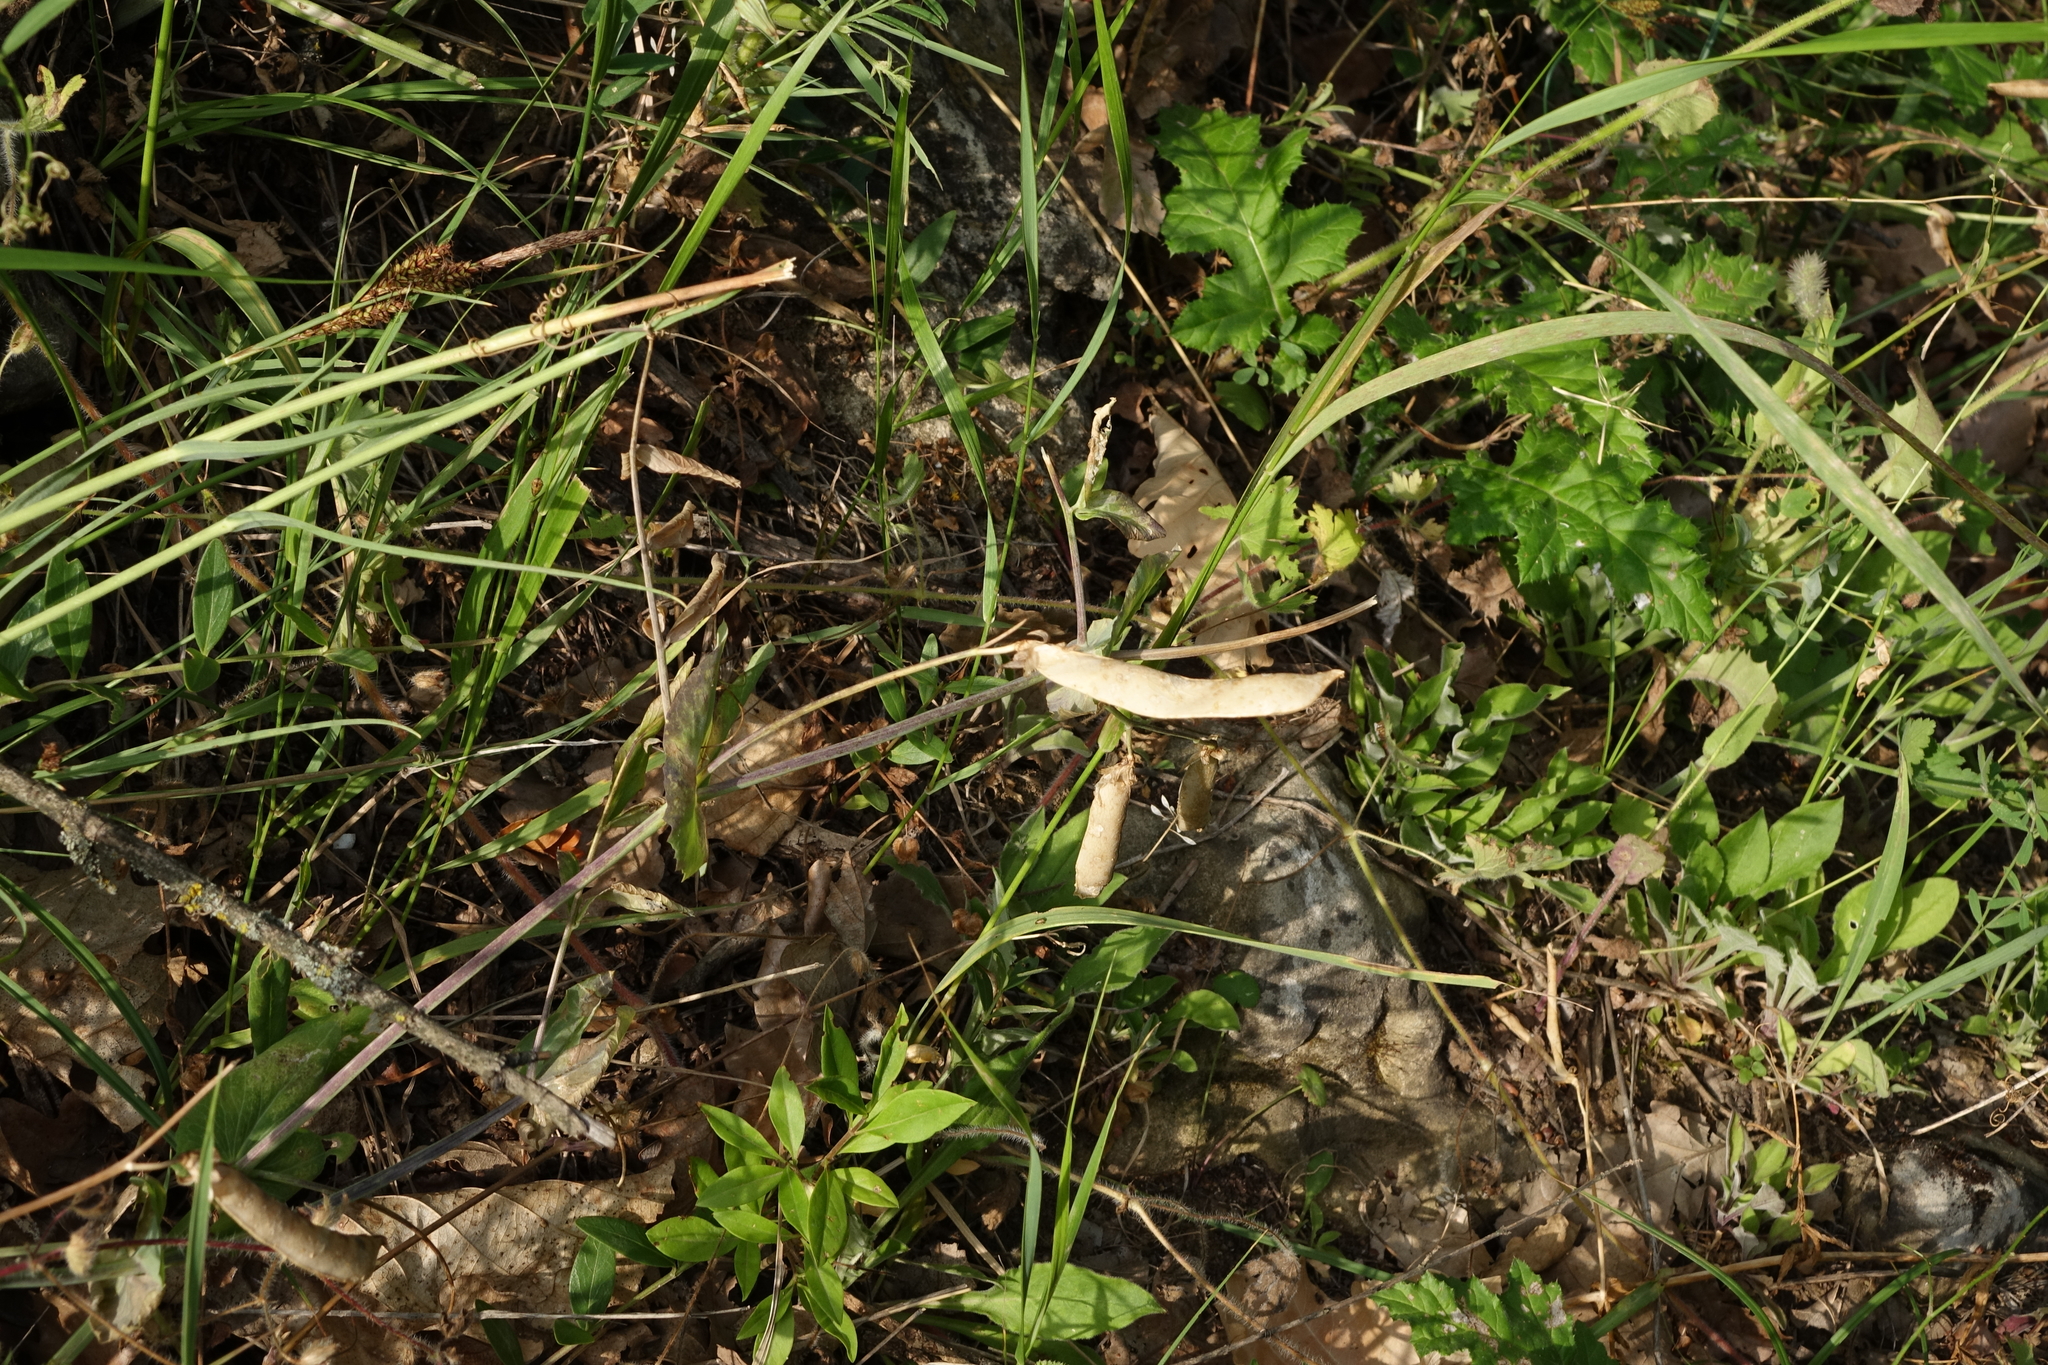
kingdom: Plantae
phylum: Tracheophyta
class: Magnoliopsida
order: Fabales
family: Fabaceae
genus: Lathyrus
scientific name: Lathyrus oleraceus
